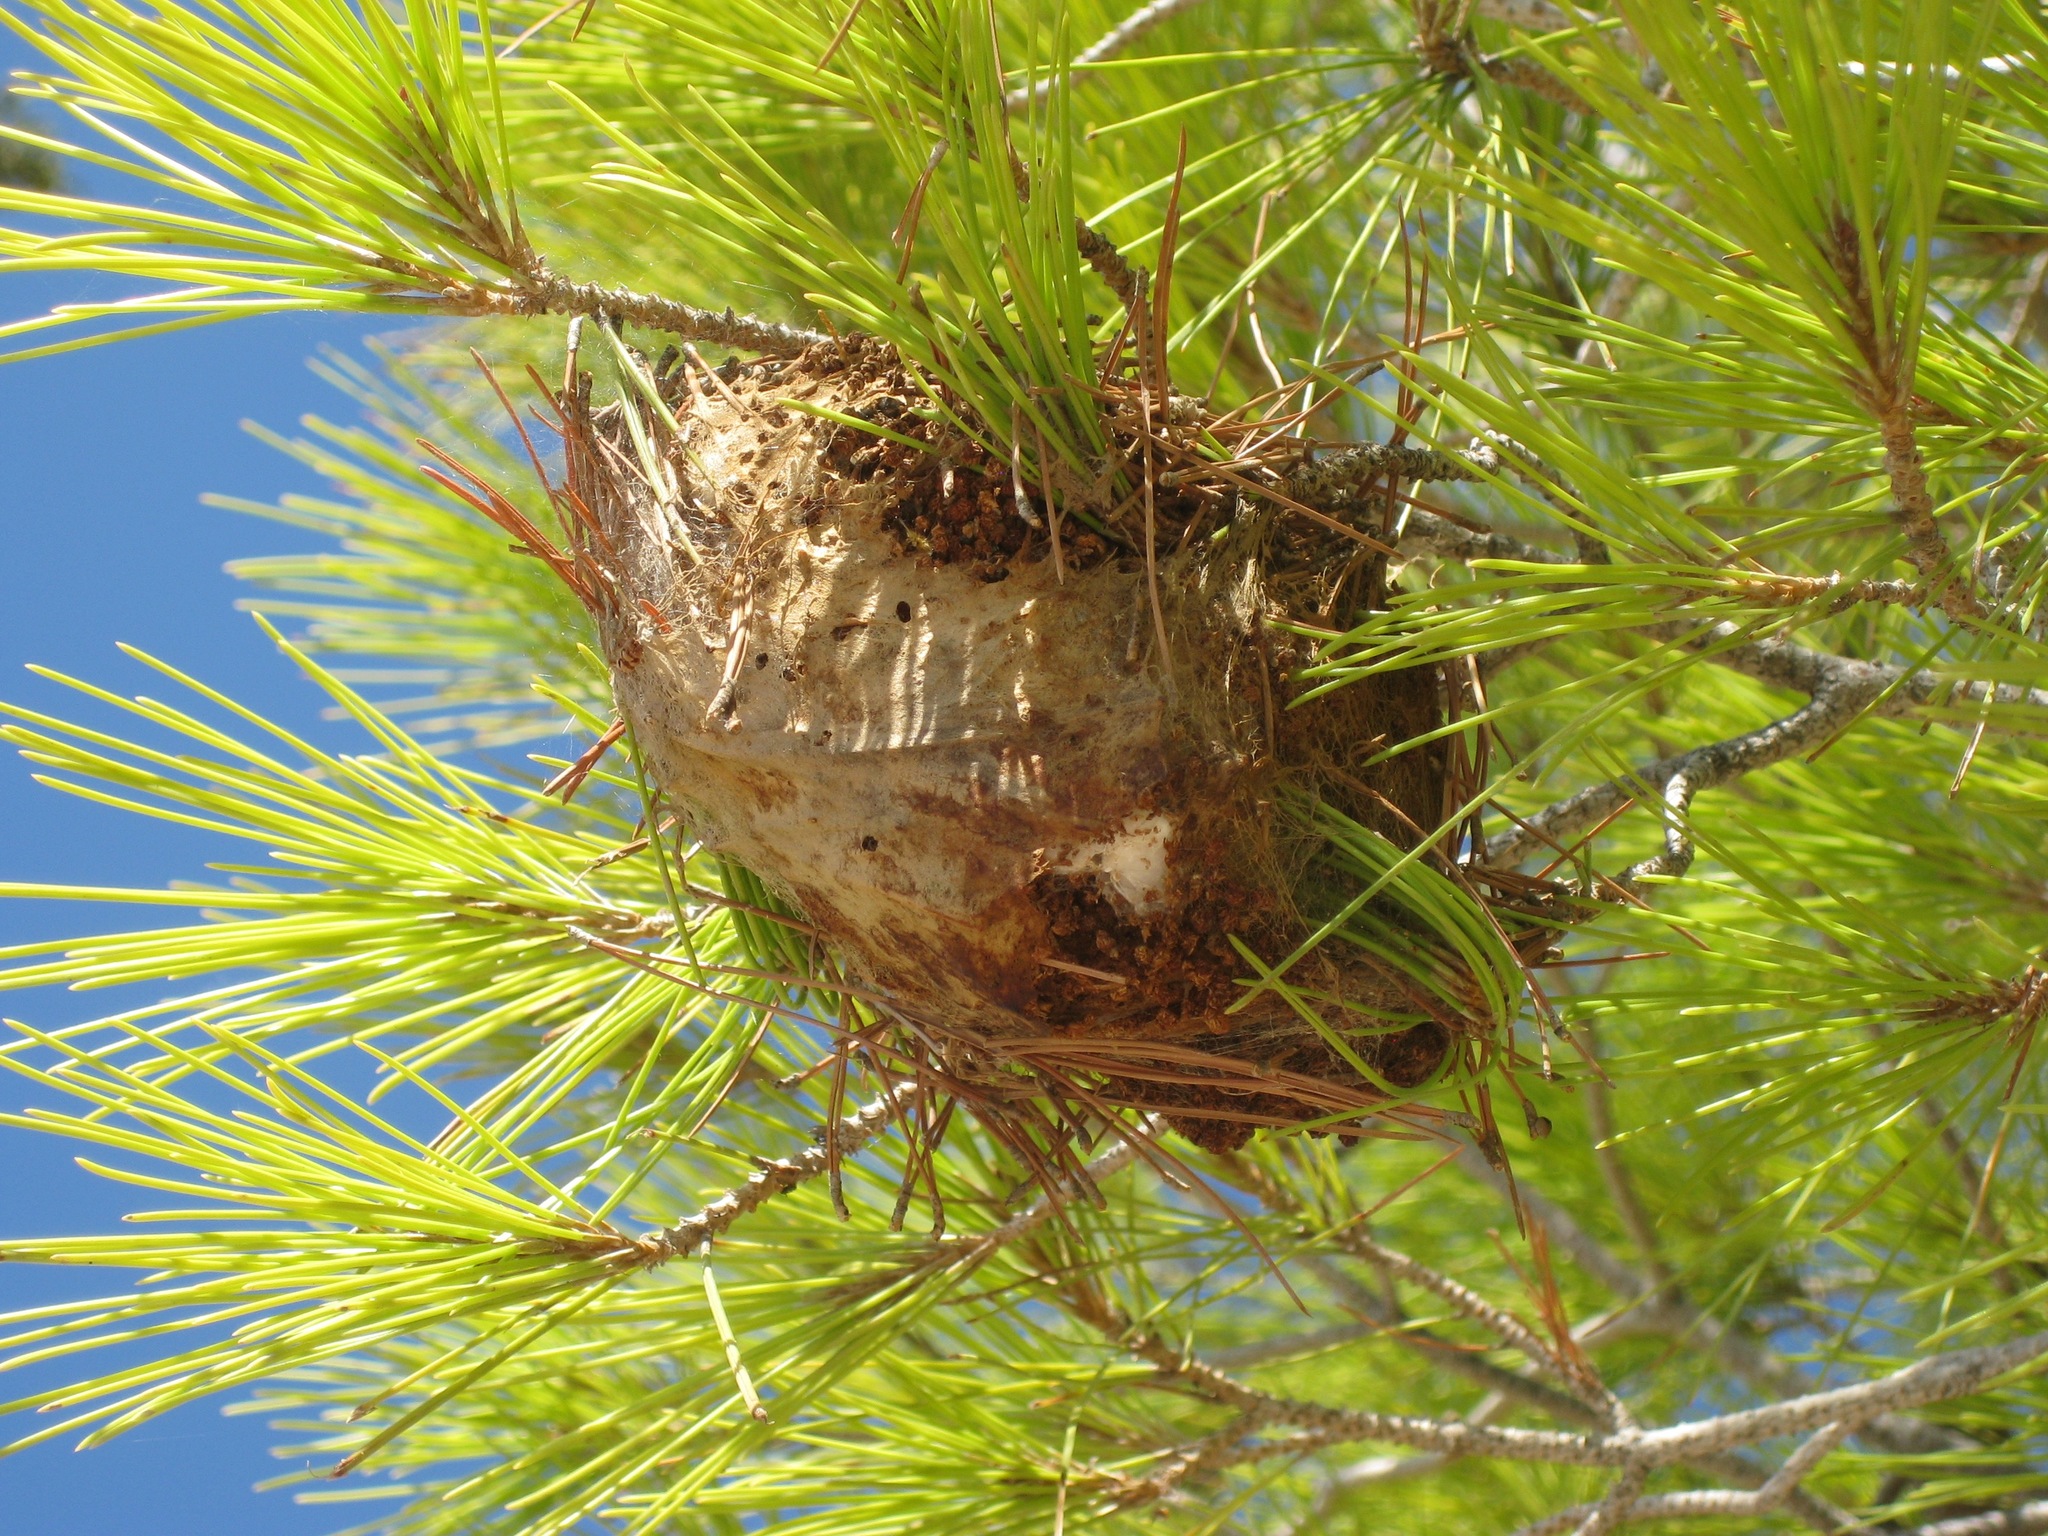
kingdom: Animalia
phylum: Arthropoda
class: Insecta
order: Lepidoptera
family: Notodontidae
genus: Thaumetopoea
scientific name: Thaumetopoea pityocampa
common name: Pine processionary
